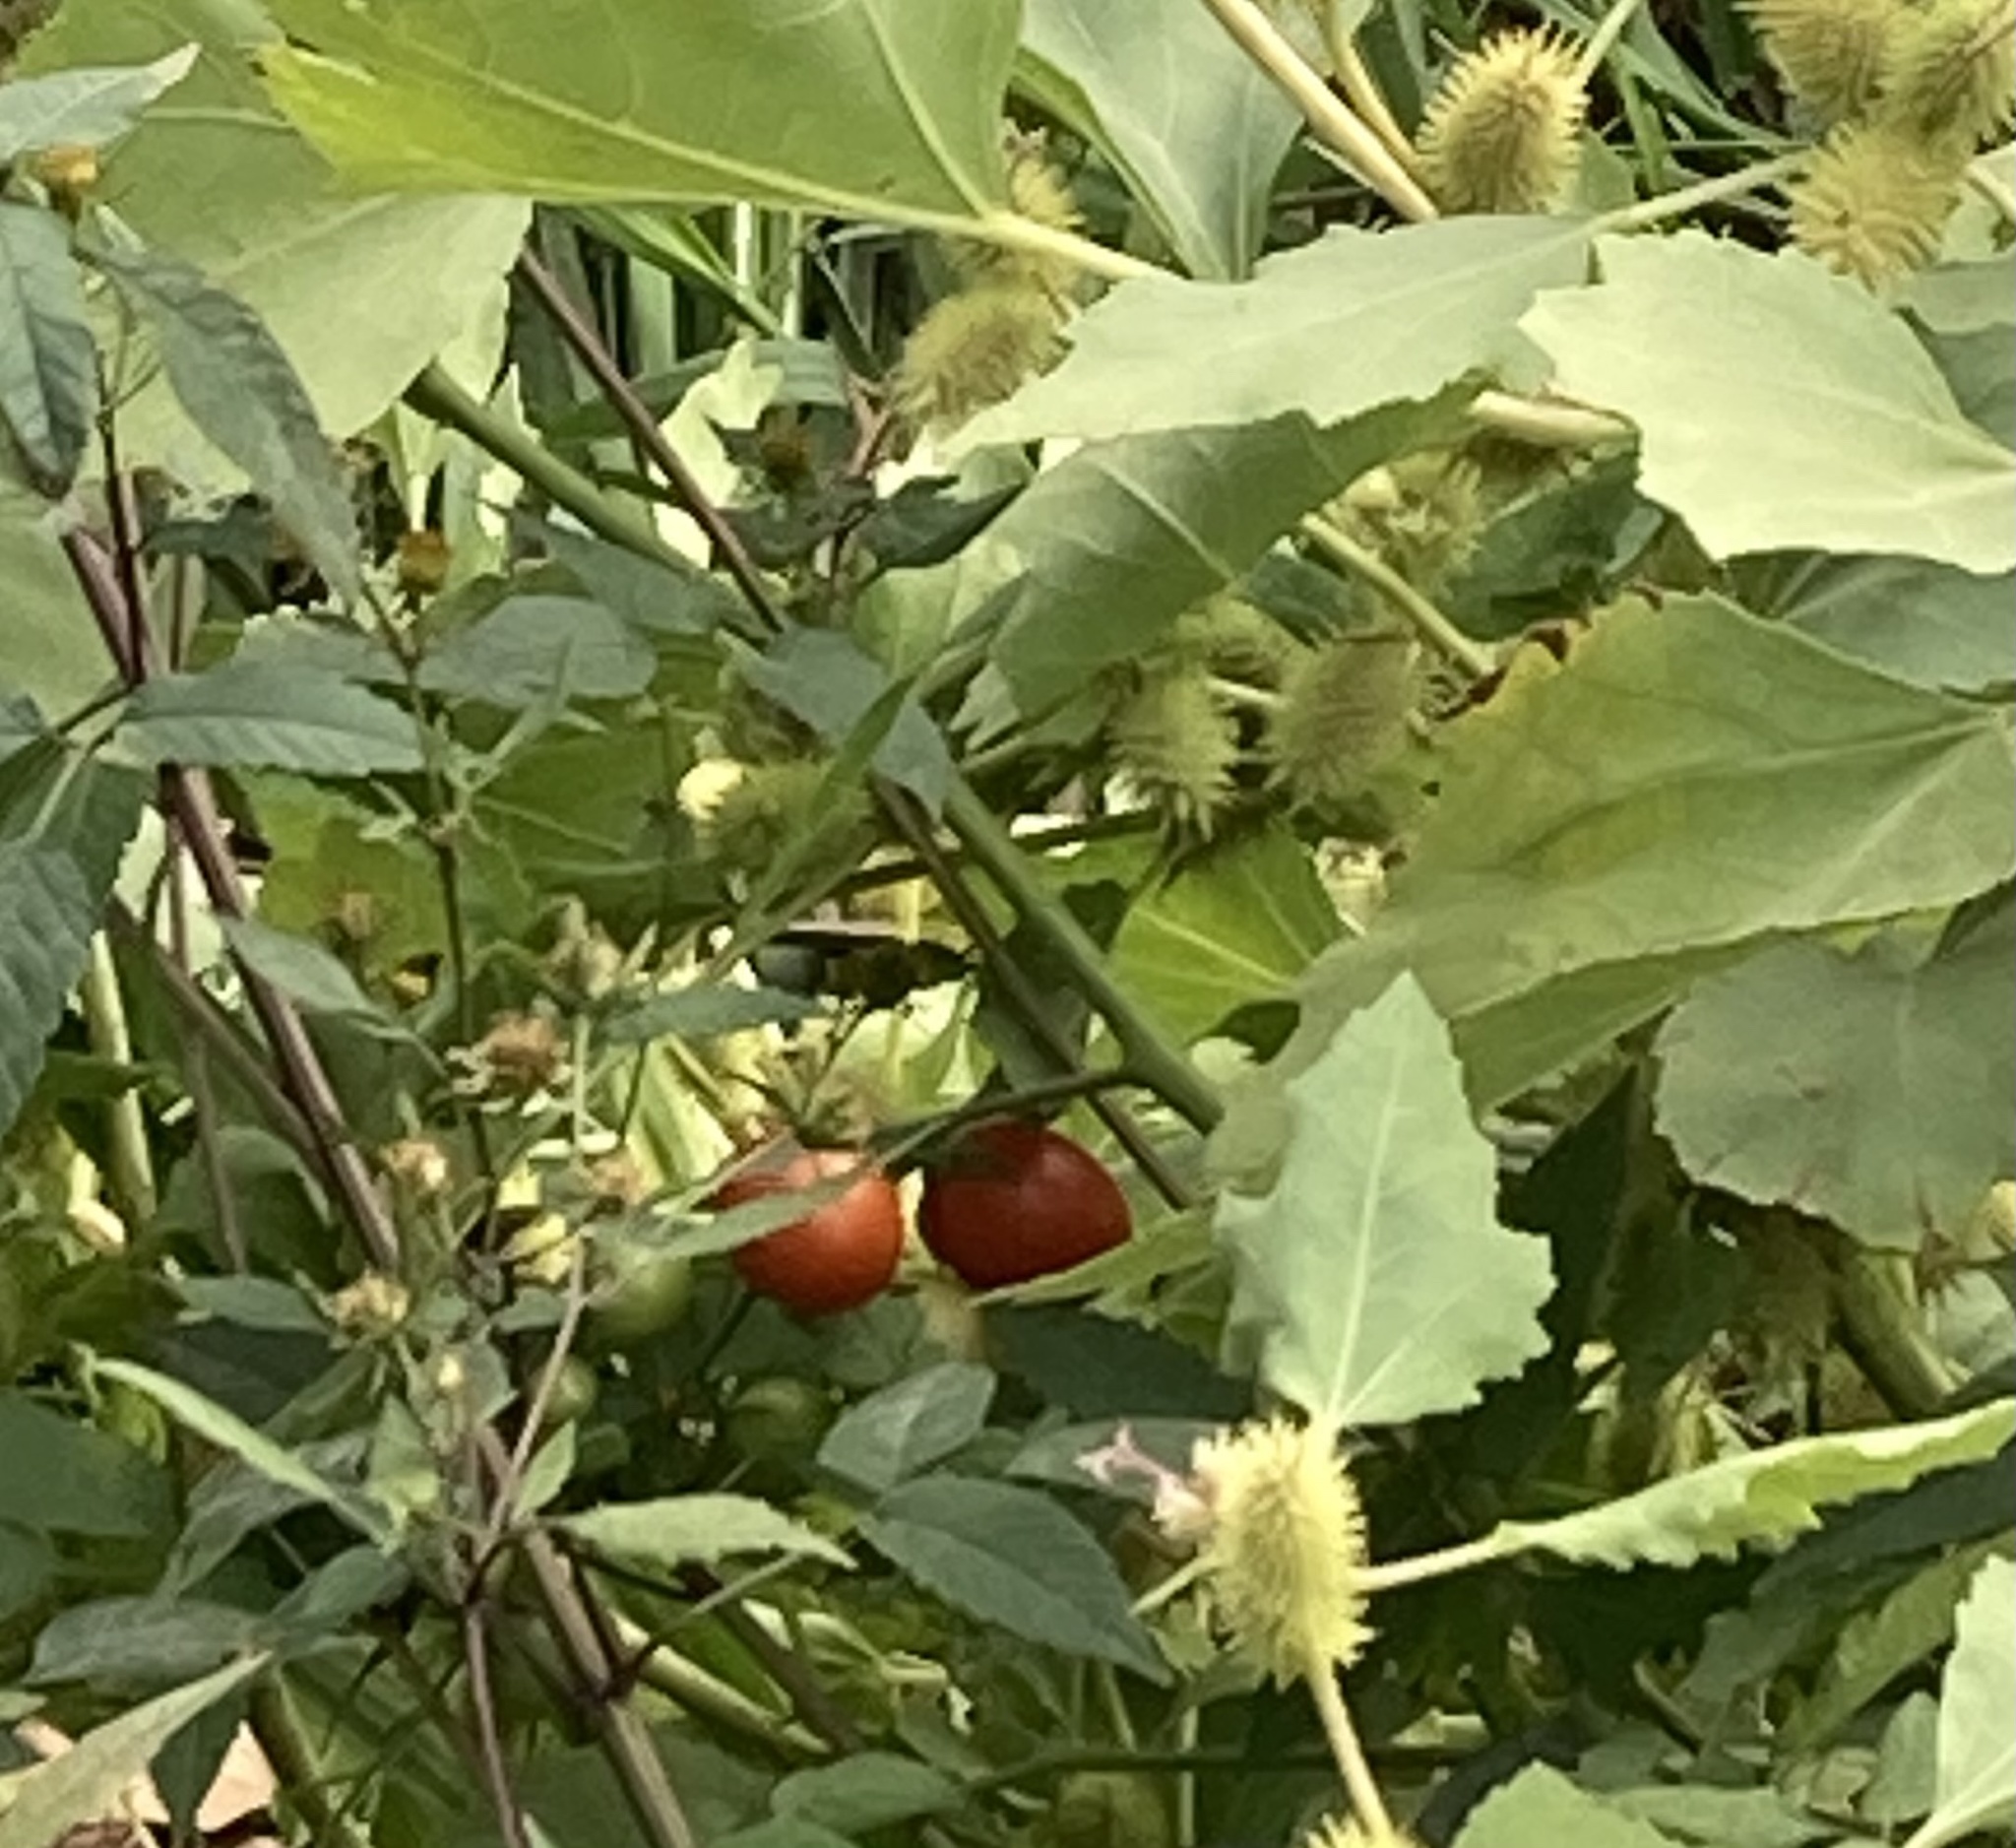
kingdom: Plantae
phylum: Tracheophyta
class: Magnoliopsida
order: Solanales
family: Solanaceae
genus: Solanum
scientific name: Solanum lycopersicum
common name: Garden tomato
